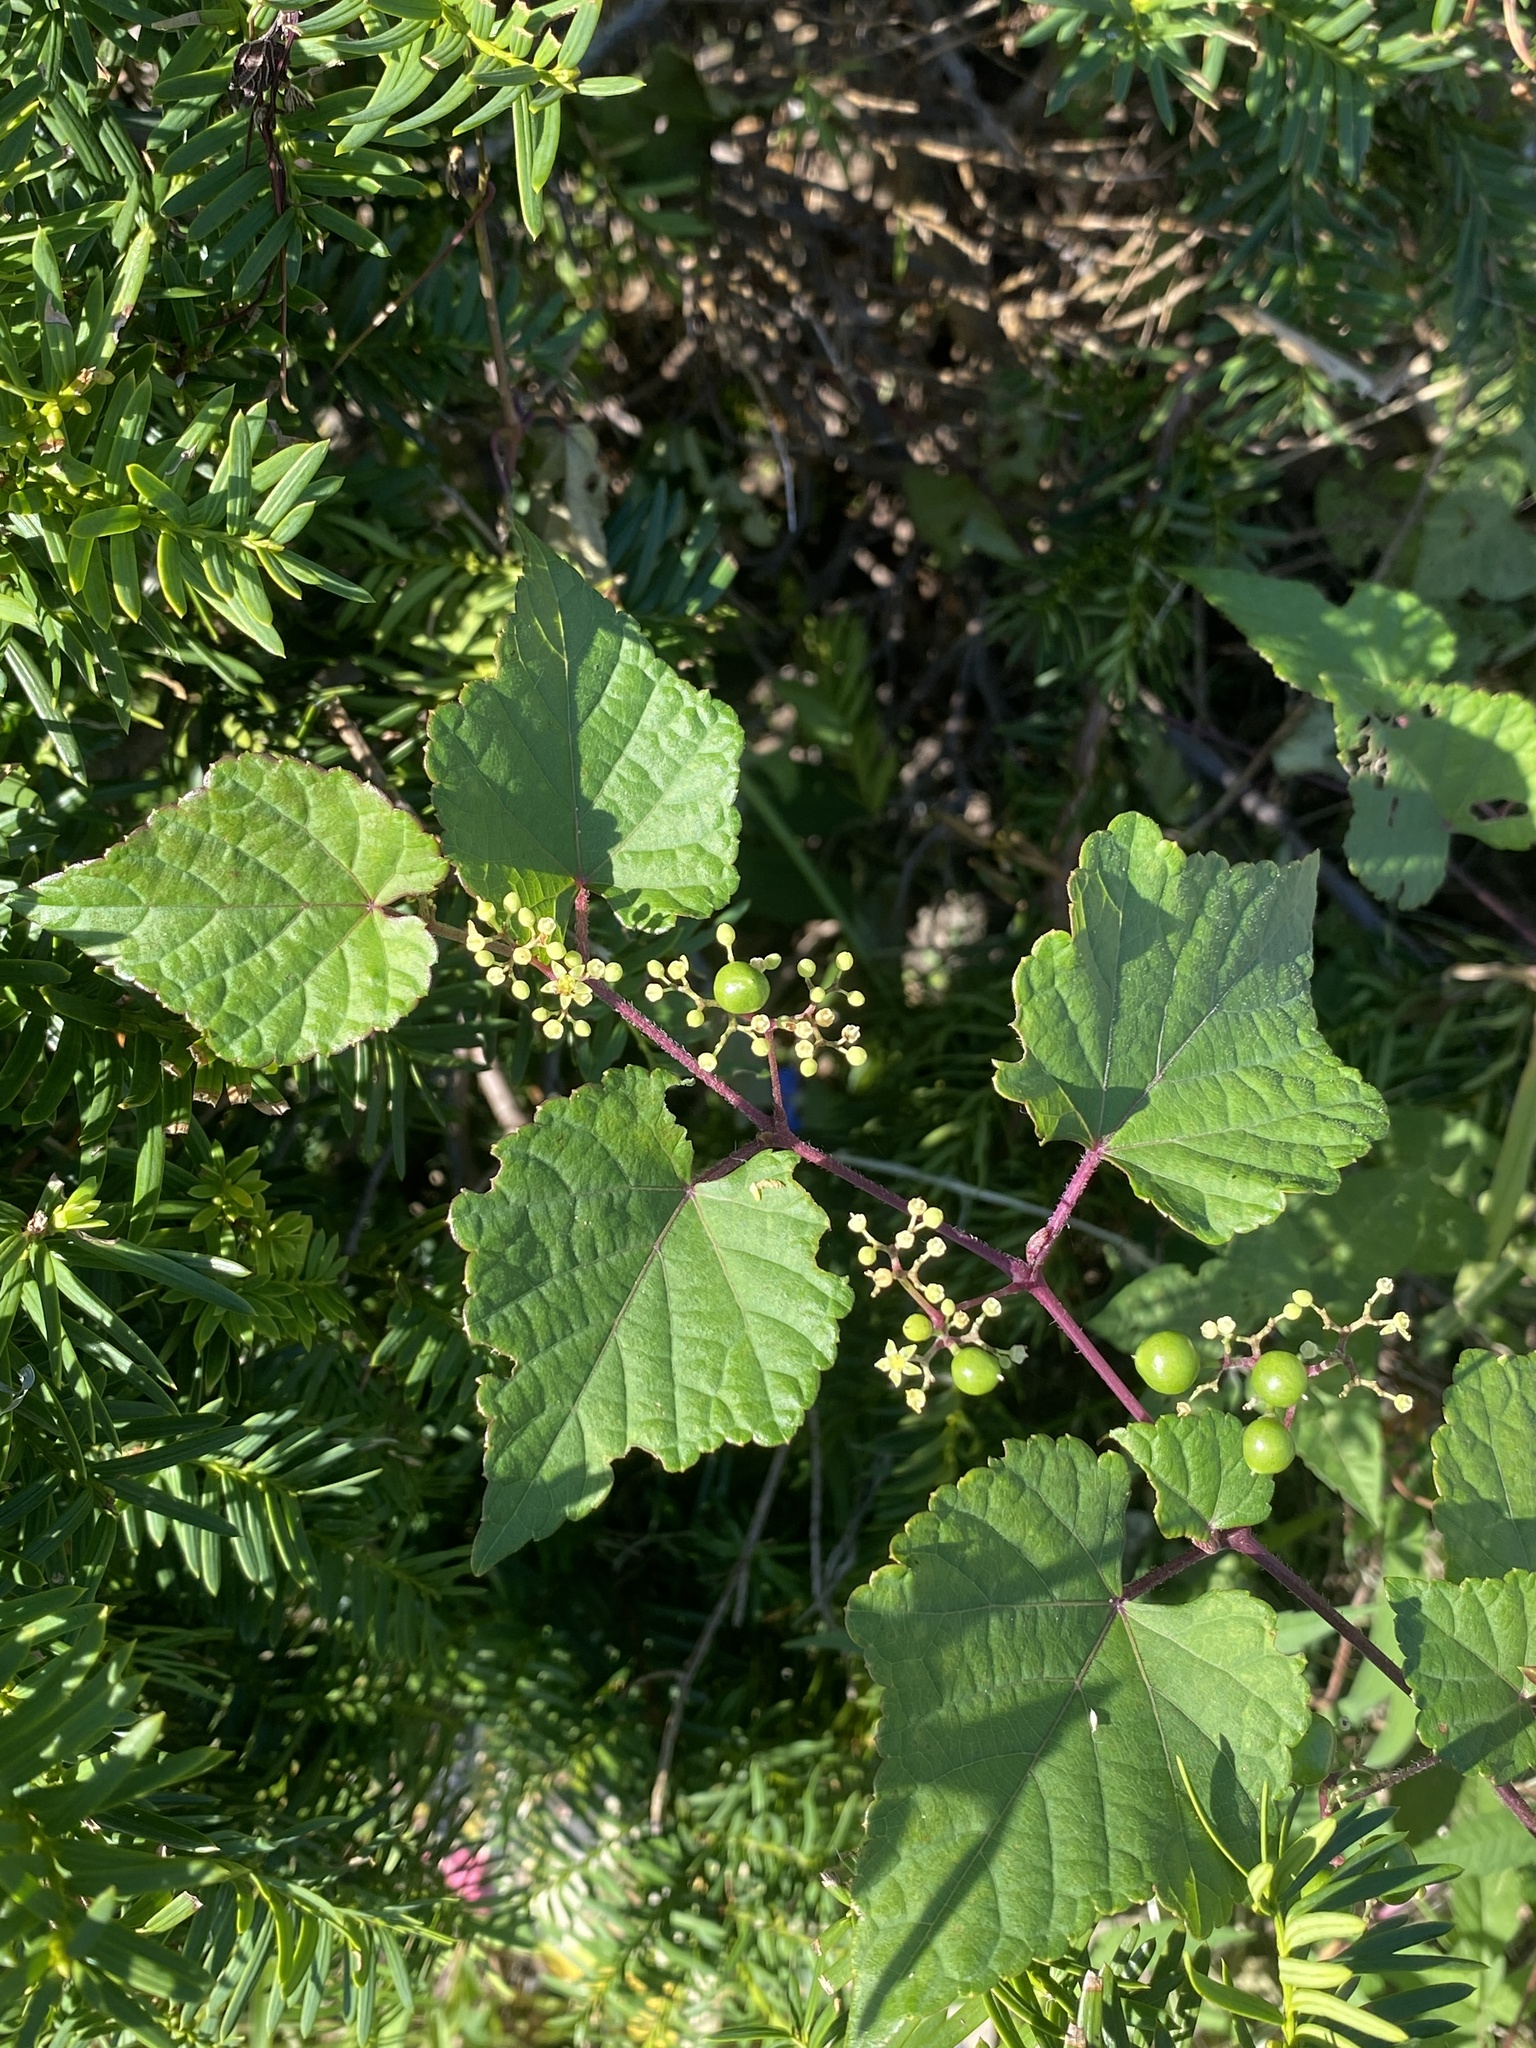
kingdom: Plantae
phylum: Tracheophyta
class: Magnoliopsida
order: Vitales
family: Vitaceae
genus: Ampelopsis
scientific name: Ampelopsis glandulosa
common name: Amur peppervine
